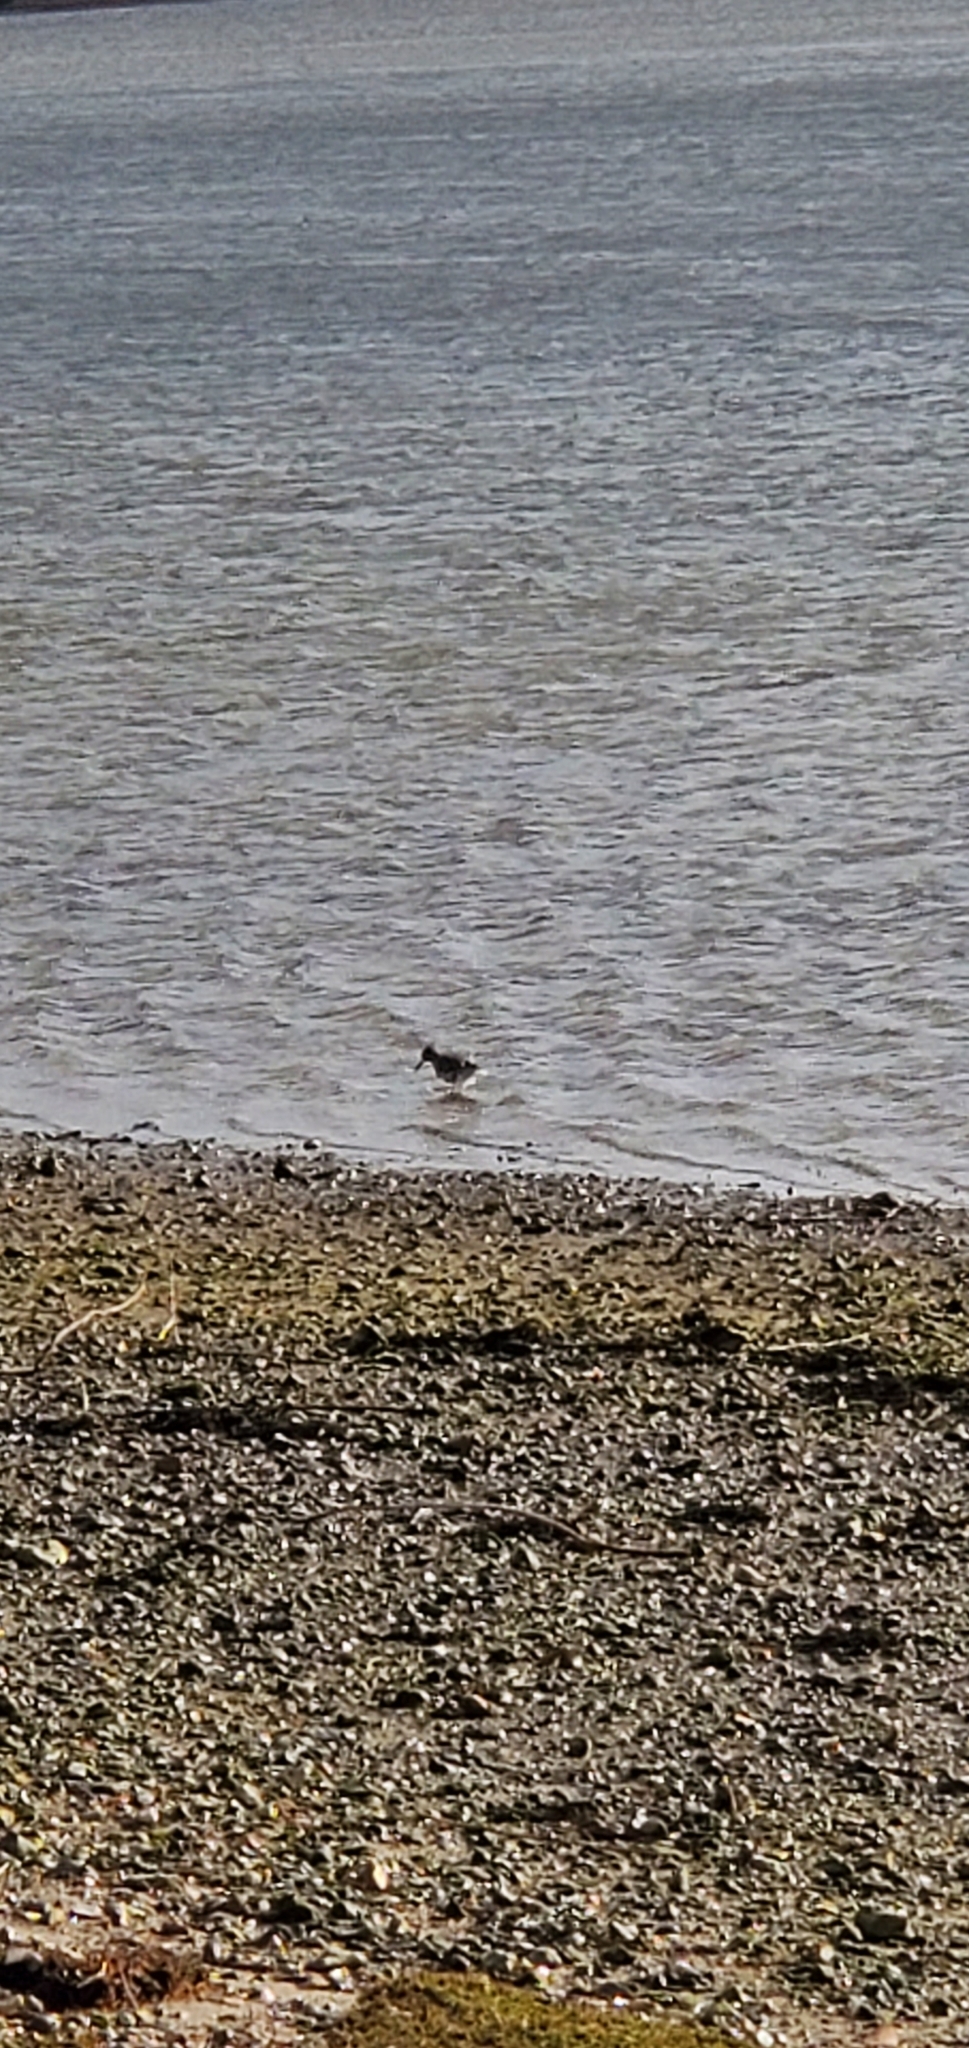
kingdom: Animalia
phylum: Chordata
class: Aves
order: Charadriiformes
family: Scolopacidae
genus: Tringa
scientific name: Tringa totanus
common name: Common redshank
